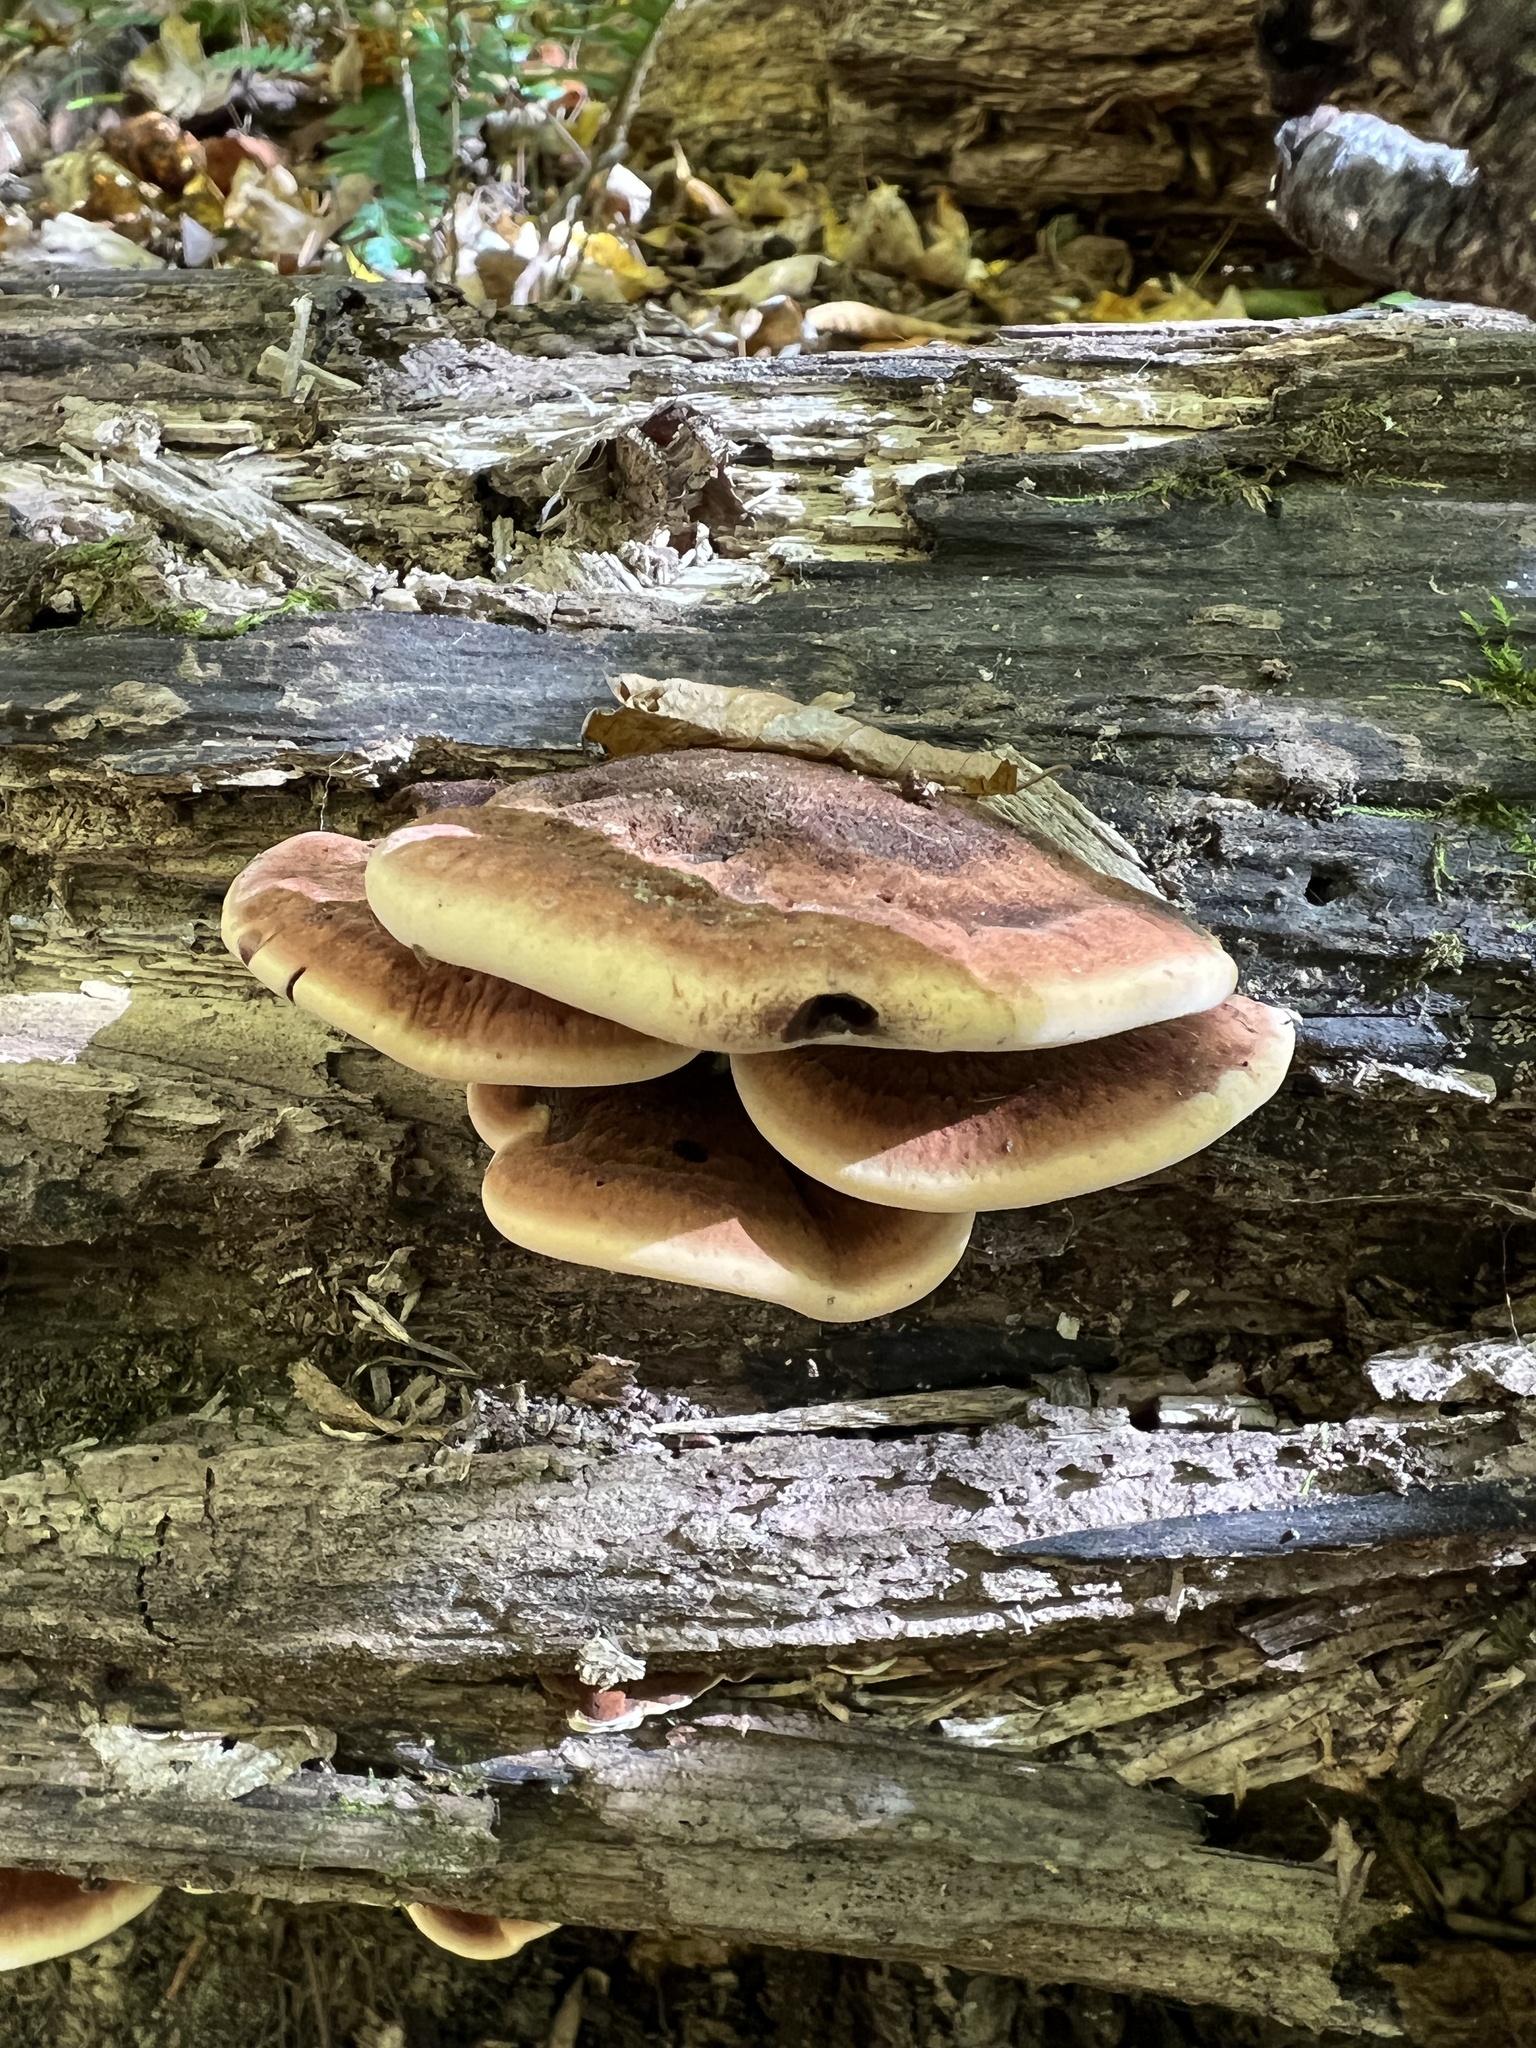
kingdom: Fungi
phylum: Basidiomycota
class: Agaricomycetes
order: Polyporales
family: Ischnodermataceae
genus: Ischnoderma
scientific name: Ischnoderma resinosum
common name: Resinous polypore
